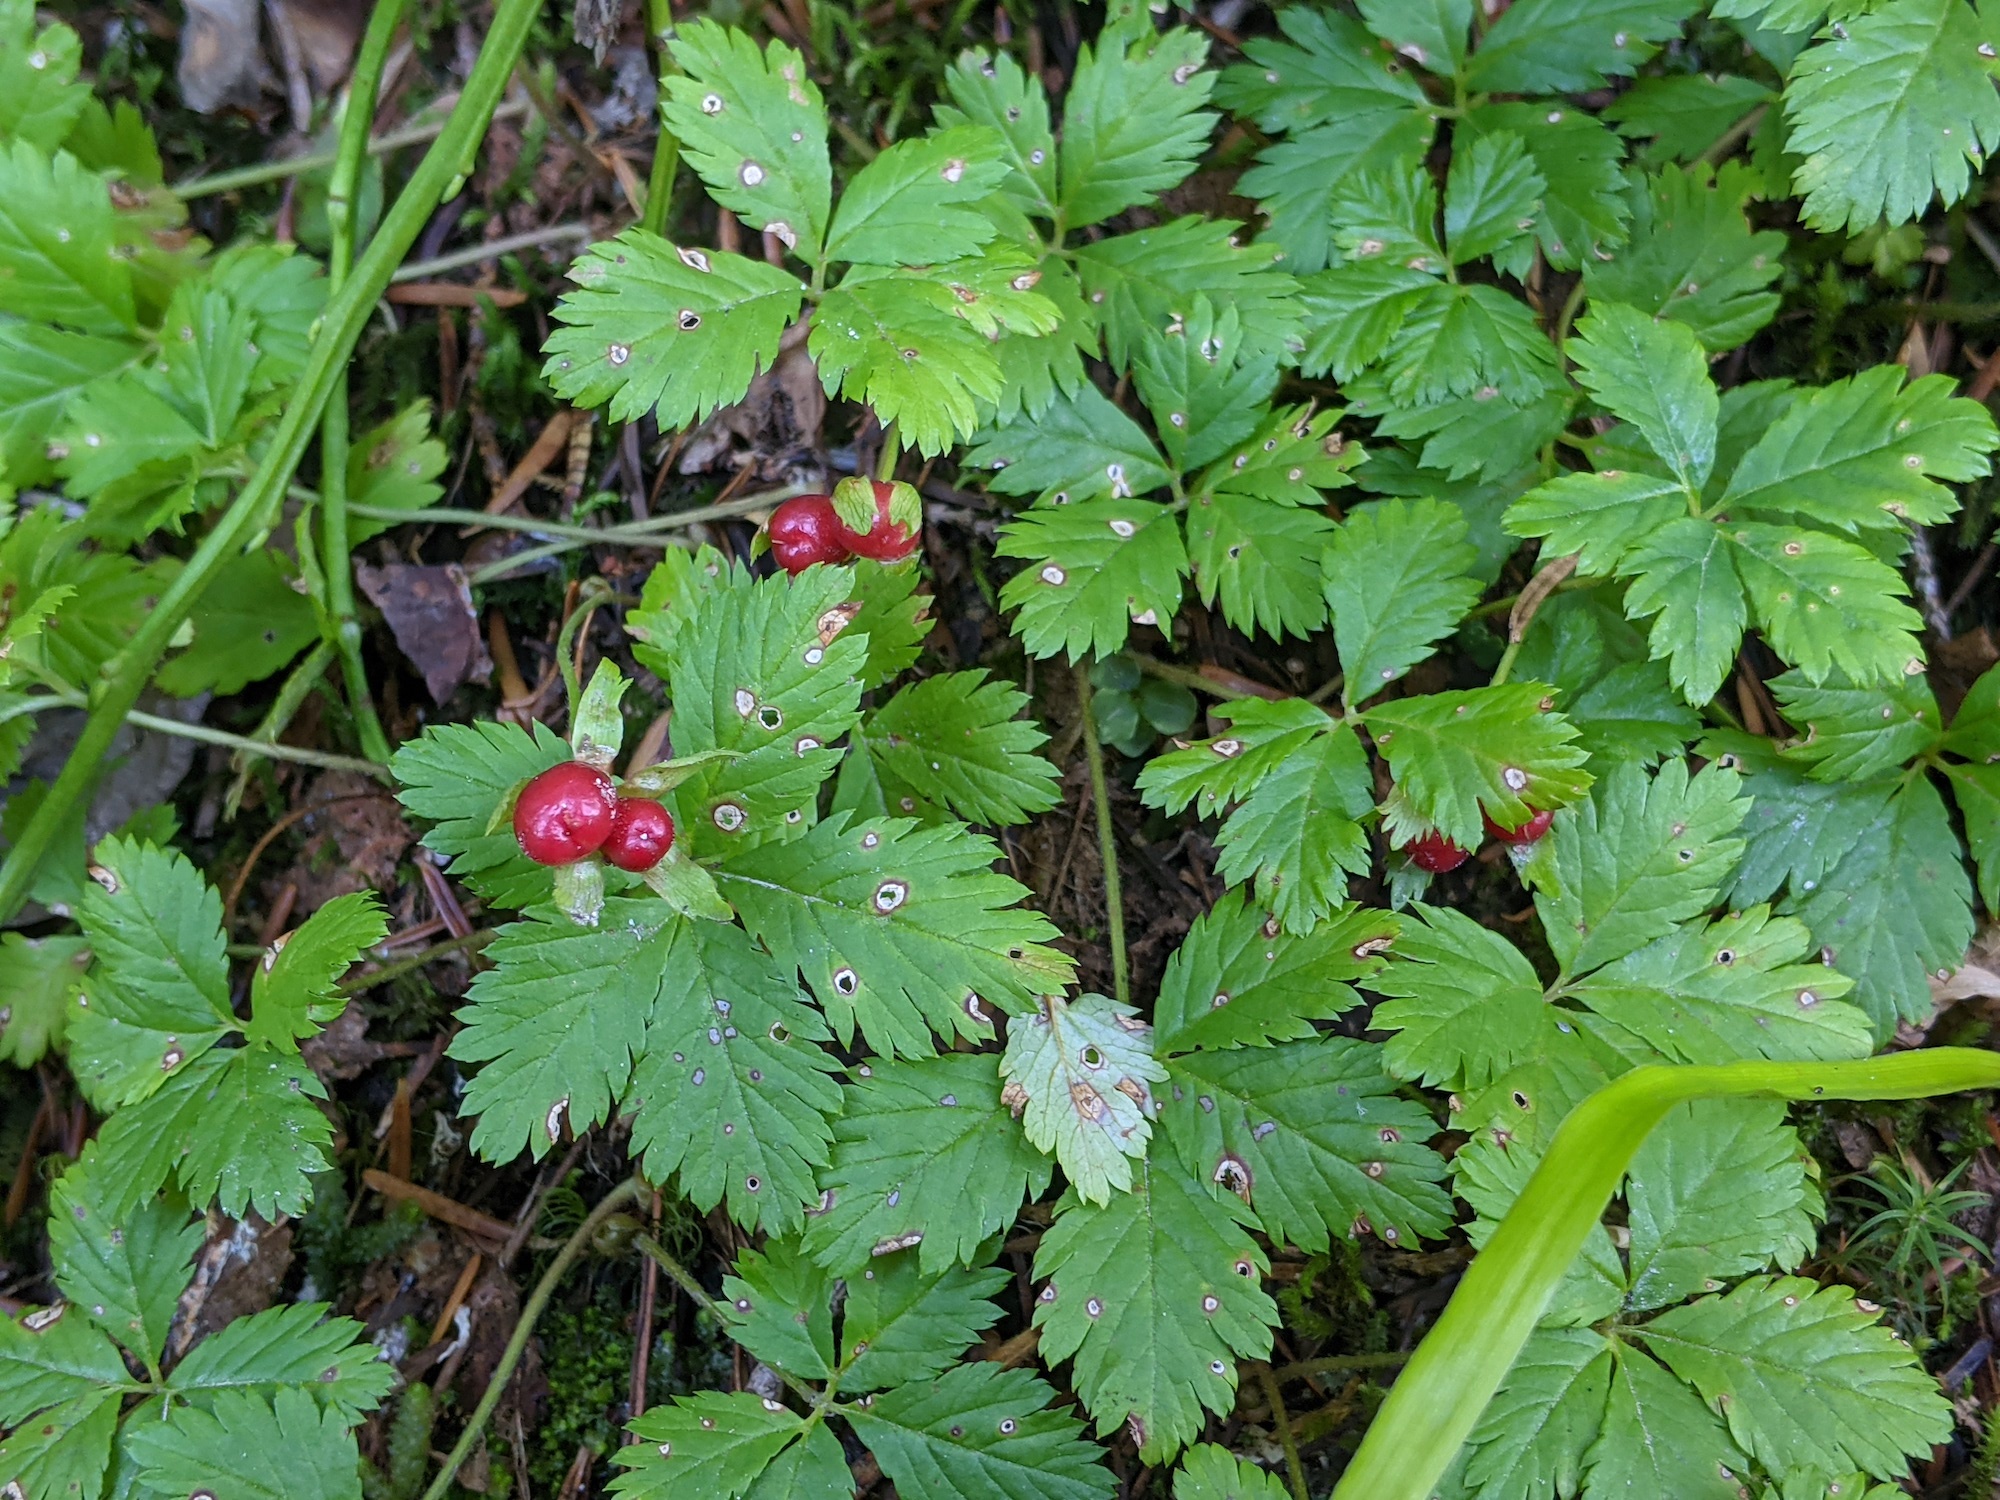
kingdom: Plantae
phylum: Tracheophyta
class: Magnoliopsida
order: Rosales
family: Rosaceae
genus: Rubus
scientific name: Rubus pedatus
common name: Creeping raspberry
